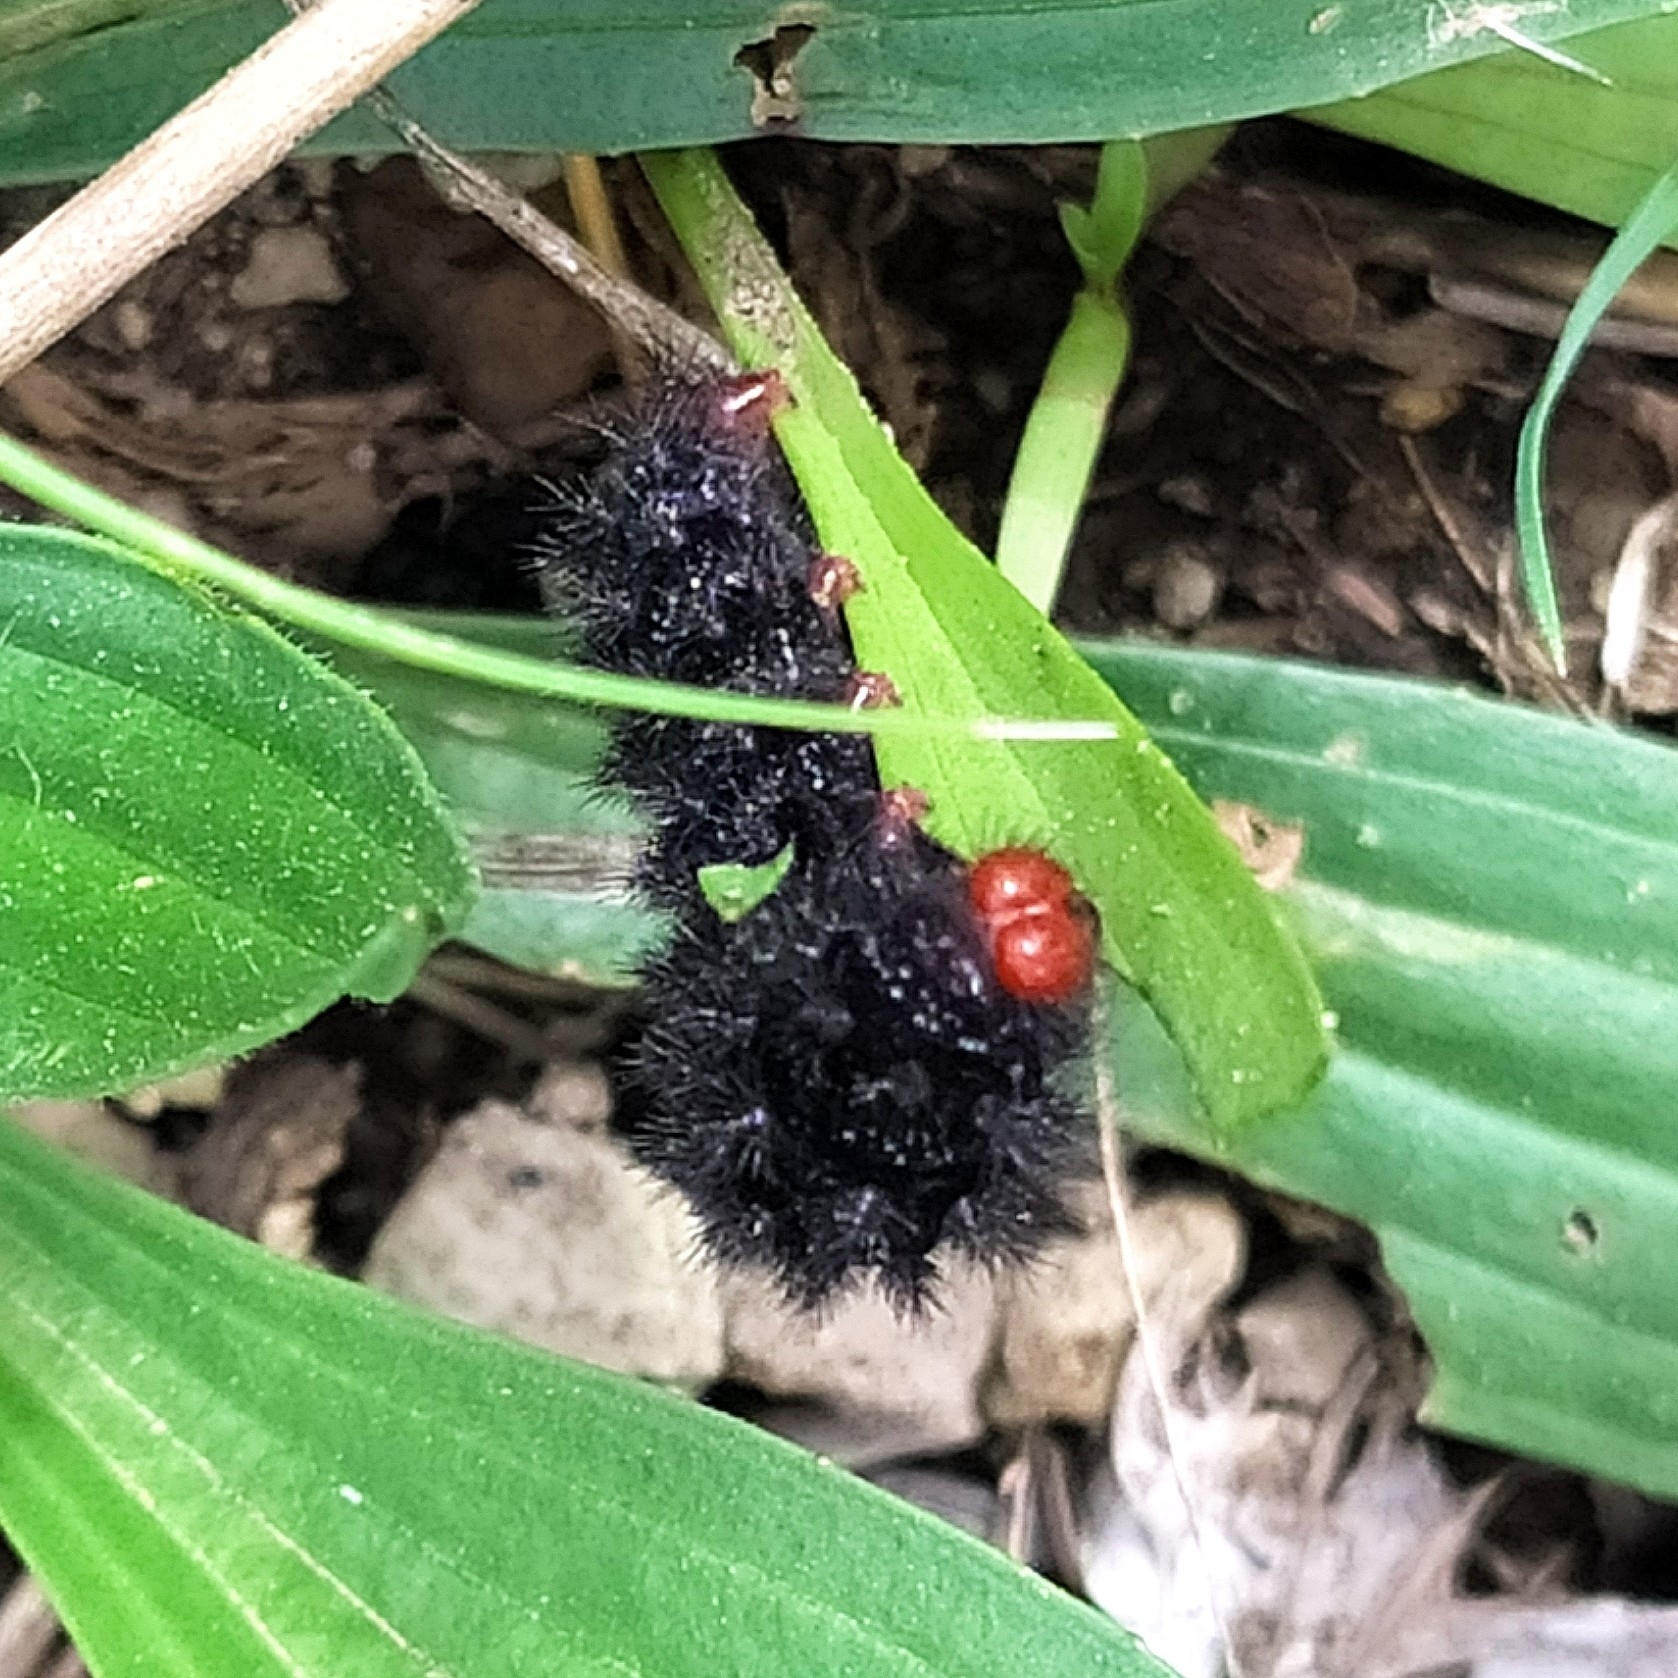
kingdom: Animalia
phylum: Arthropoda
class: Insecta
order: Lepidoptera
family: Nymphalidae
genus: Melitaea
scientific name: Melitaea cinxia
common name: Glanville fritillary
